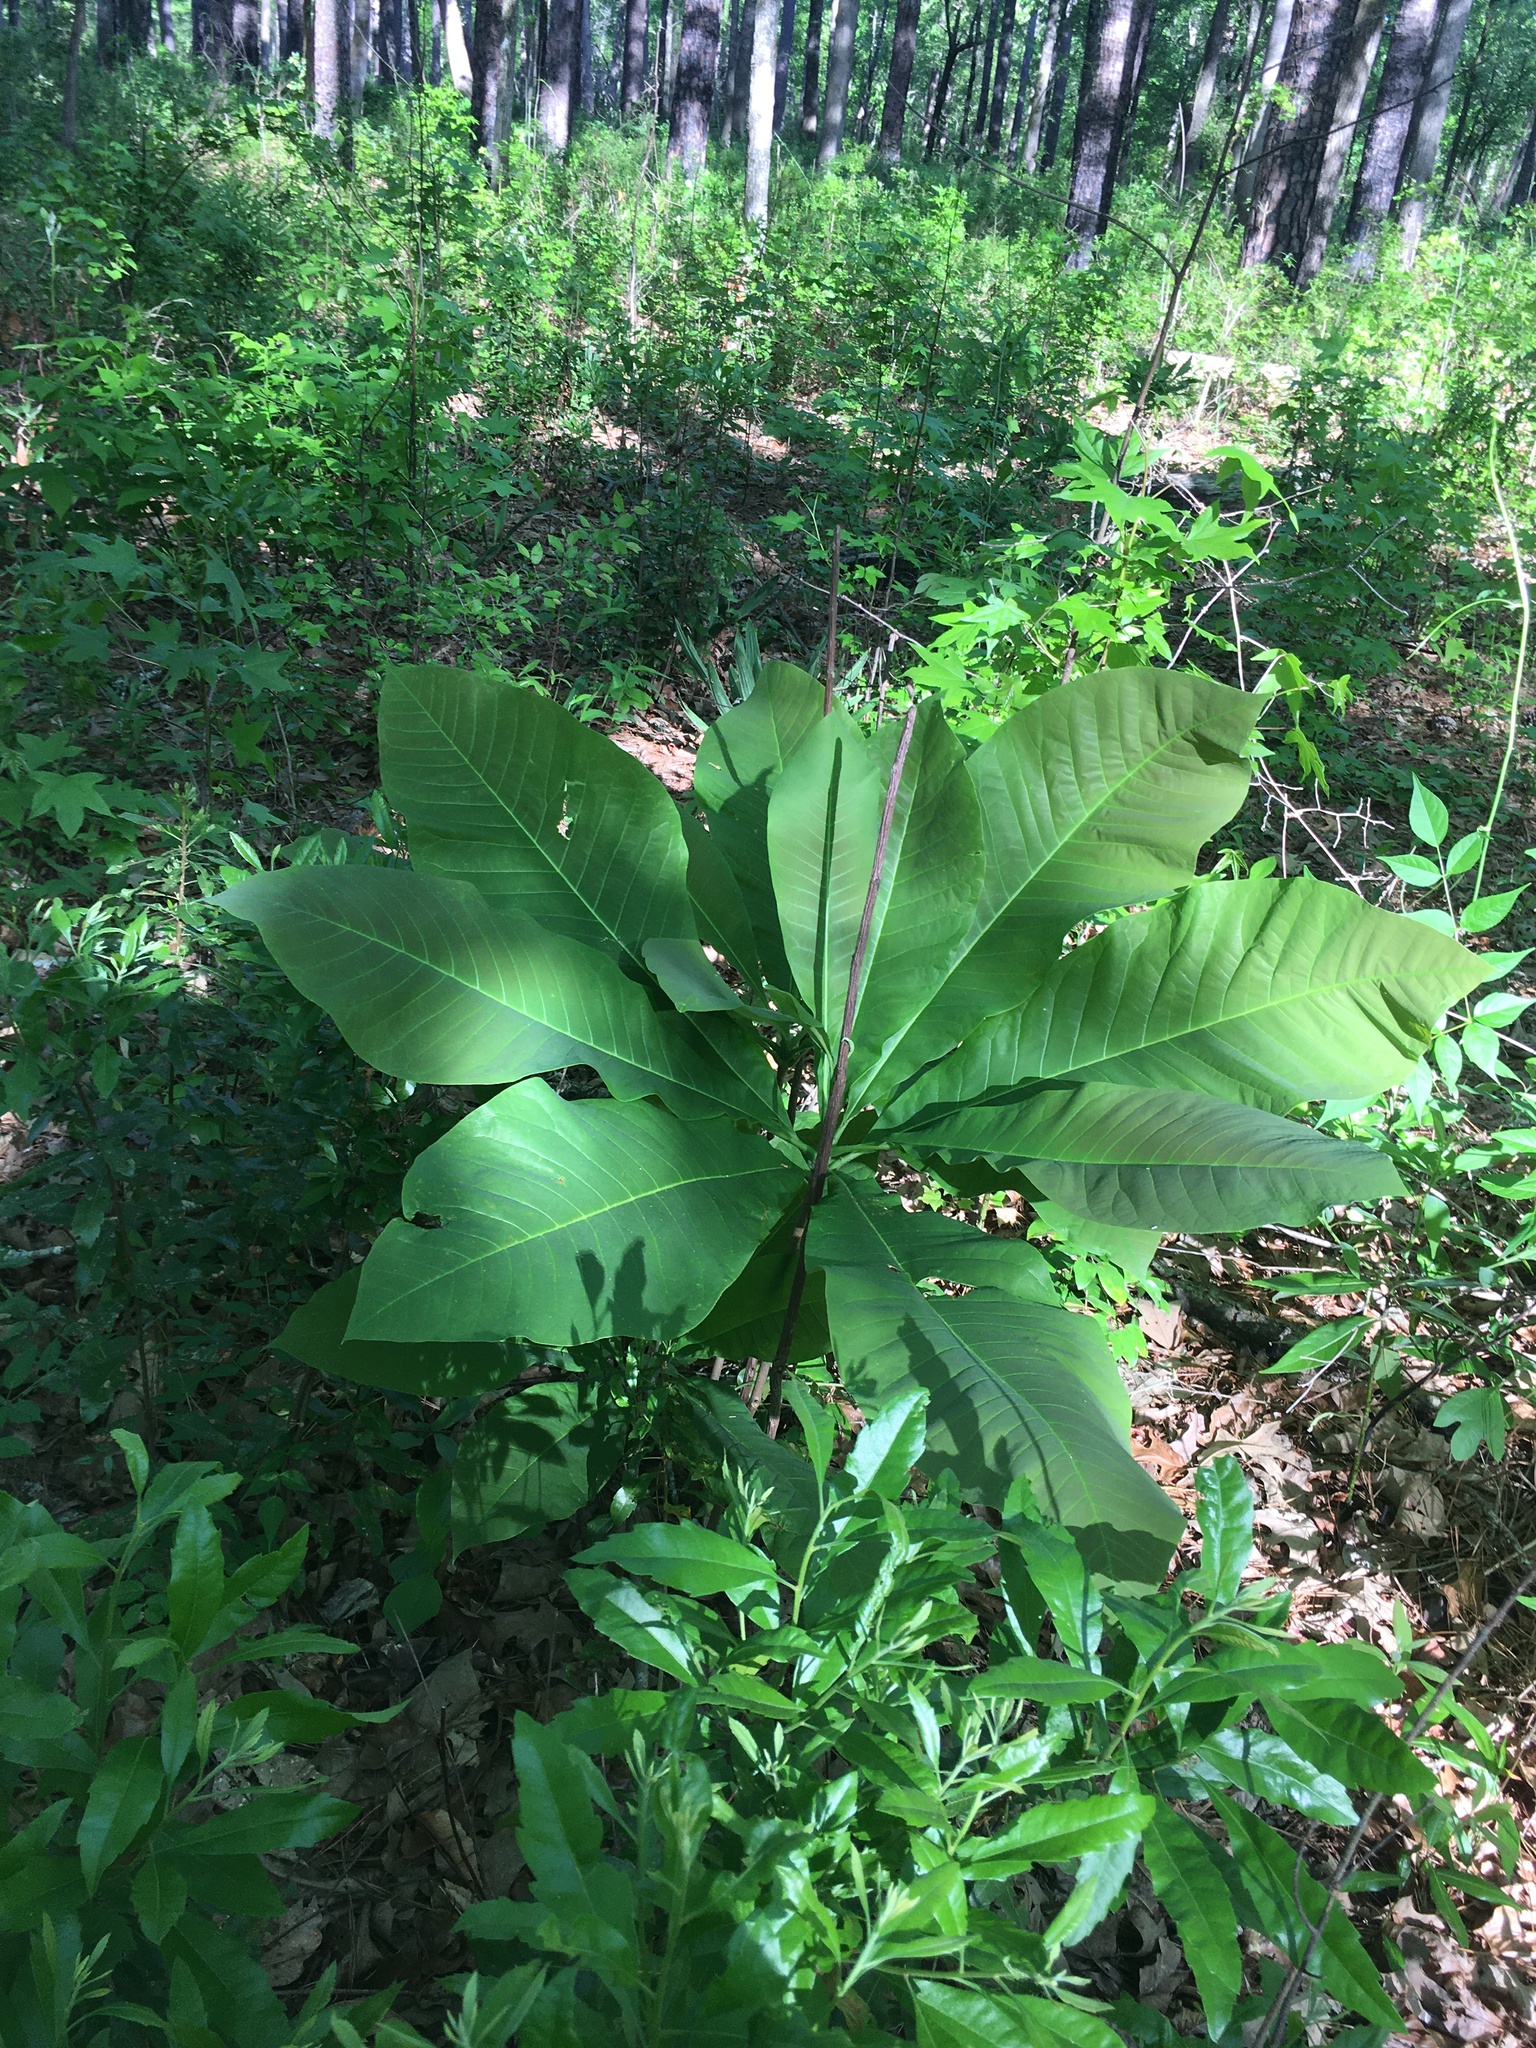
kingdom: Plantae
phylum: Tracheophyta
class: Magnoliopsida
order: Magnoliales
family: Magnoliaceae
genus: Magnolia
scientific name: Magnolia tripetala
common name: Umbrella magnolia
